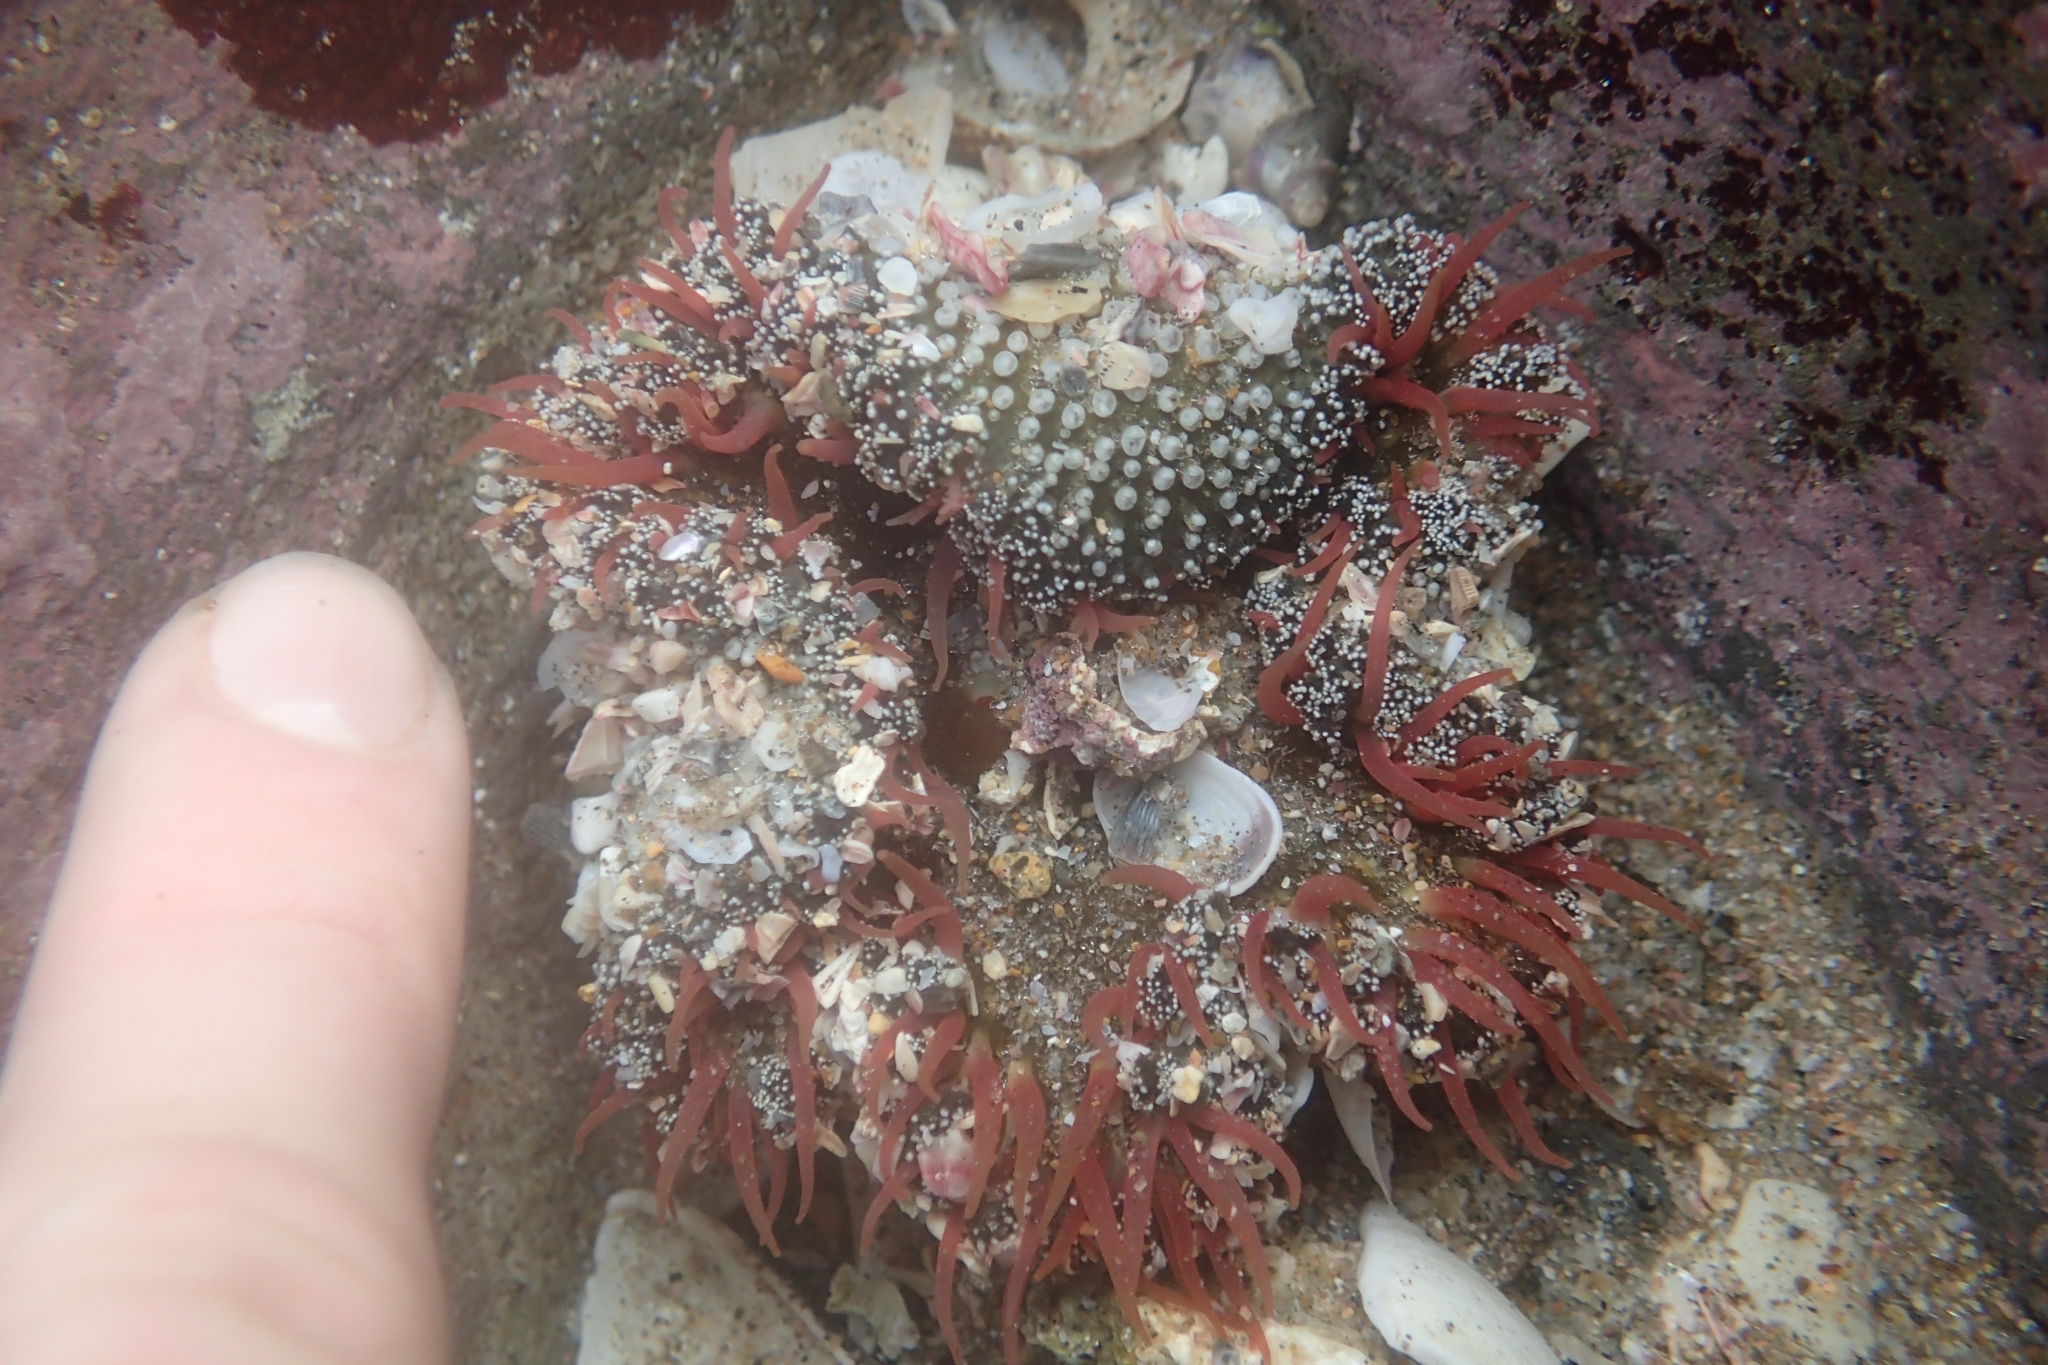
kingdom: Animalia
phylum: Cnidaria
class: Anthozoa
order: Actiniaria
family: Actiniidae
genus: Oulactis
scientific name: Oulactis magna
